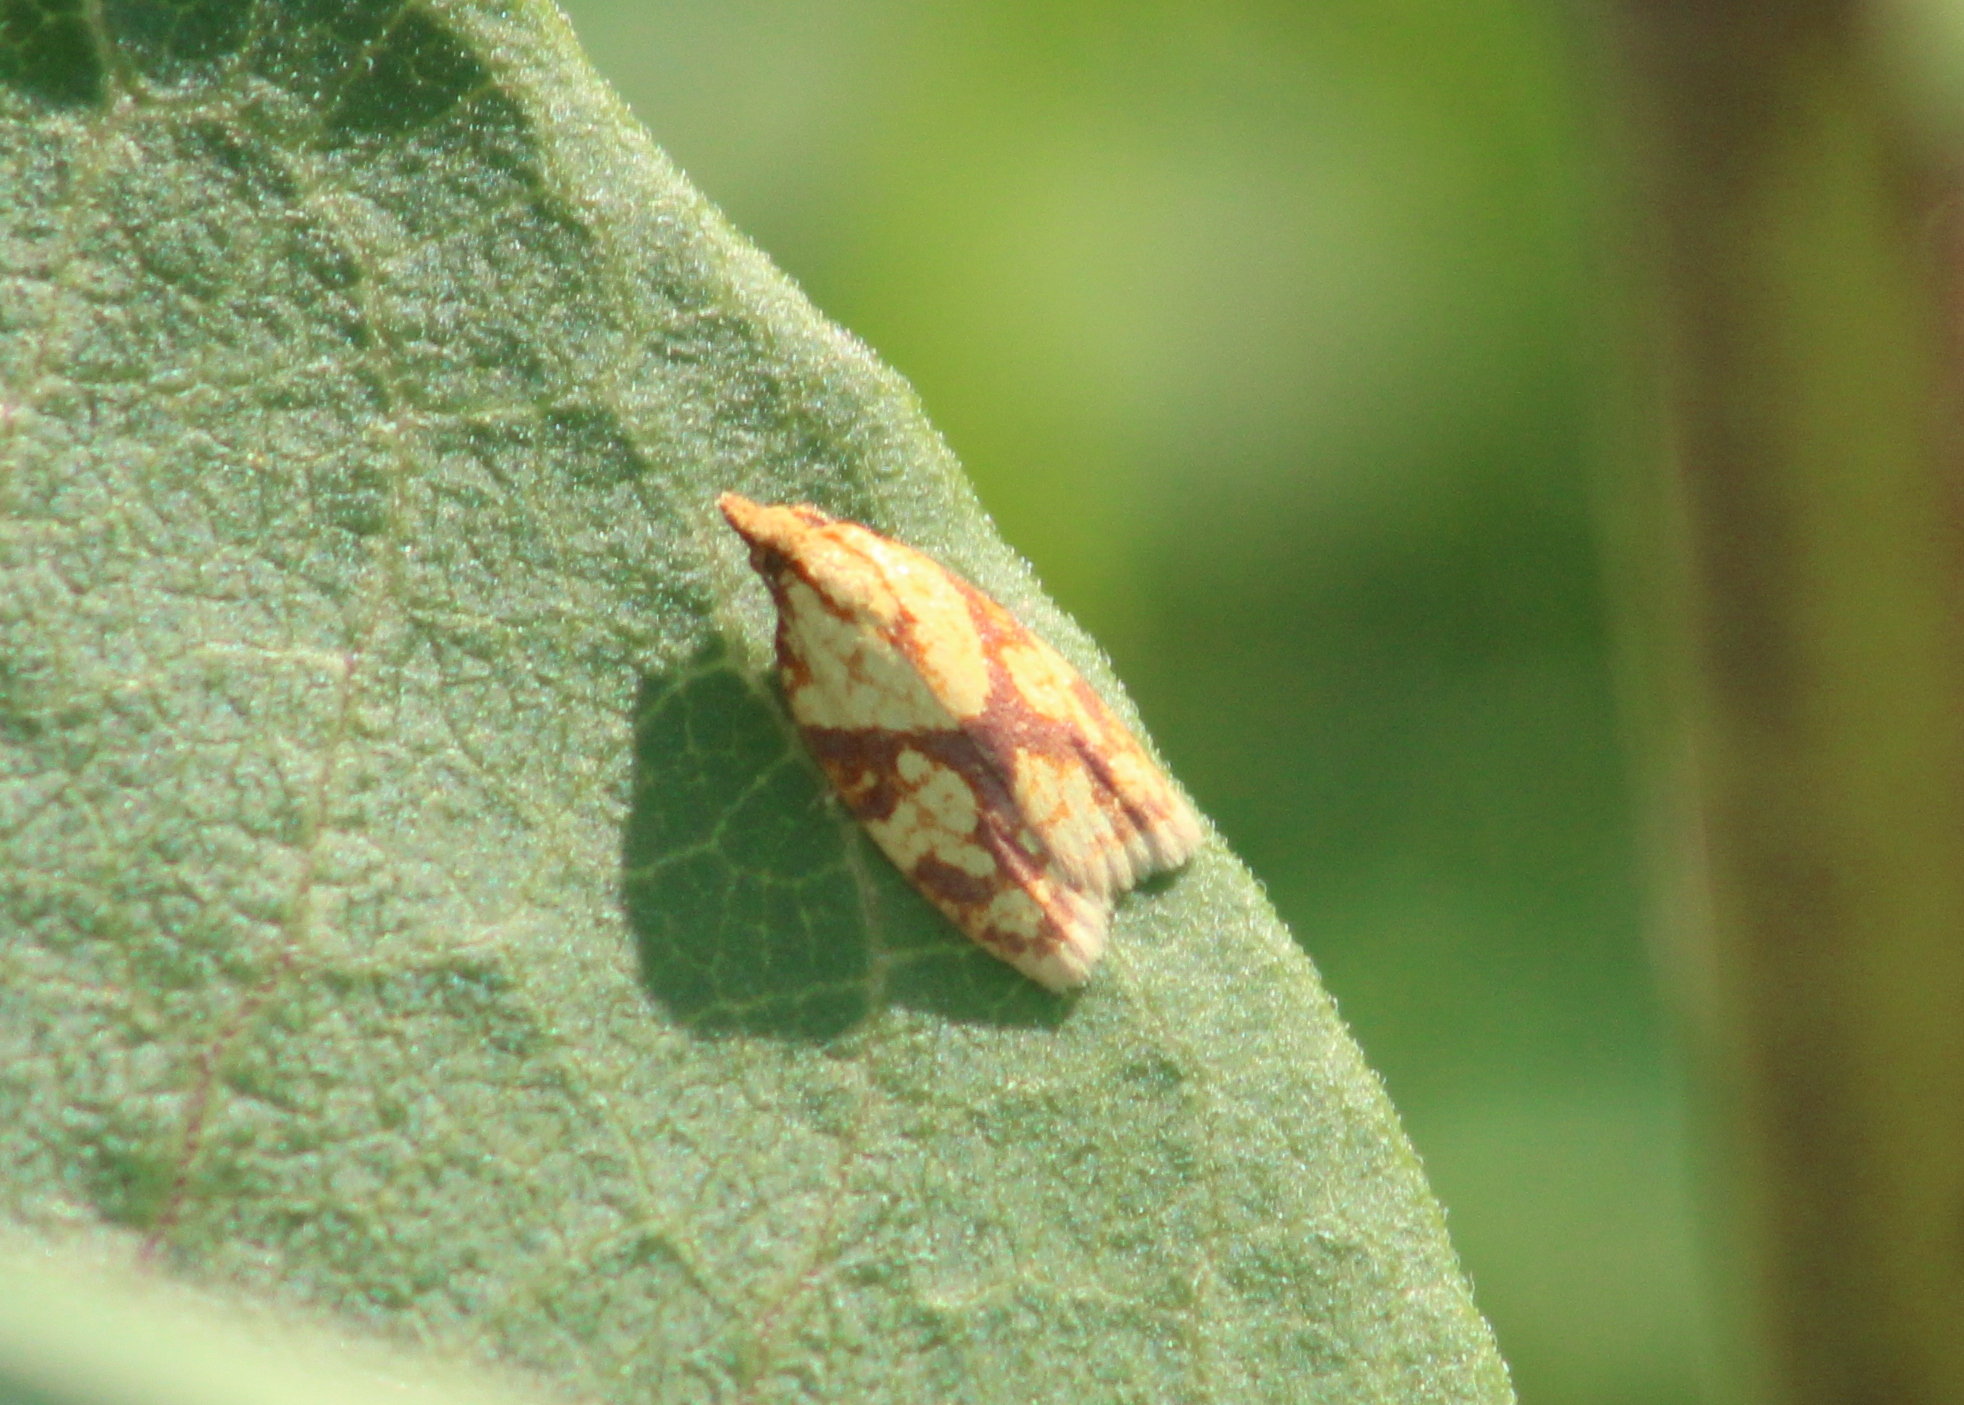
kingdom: Animalia
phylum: Arthropoda
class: Insecta
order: Lepidoptera
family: Tortricidae
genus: Sparganothis
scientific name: Sparganothis sulfureana
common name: Sparganothis fruitworm moth
